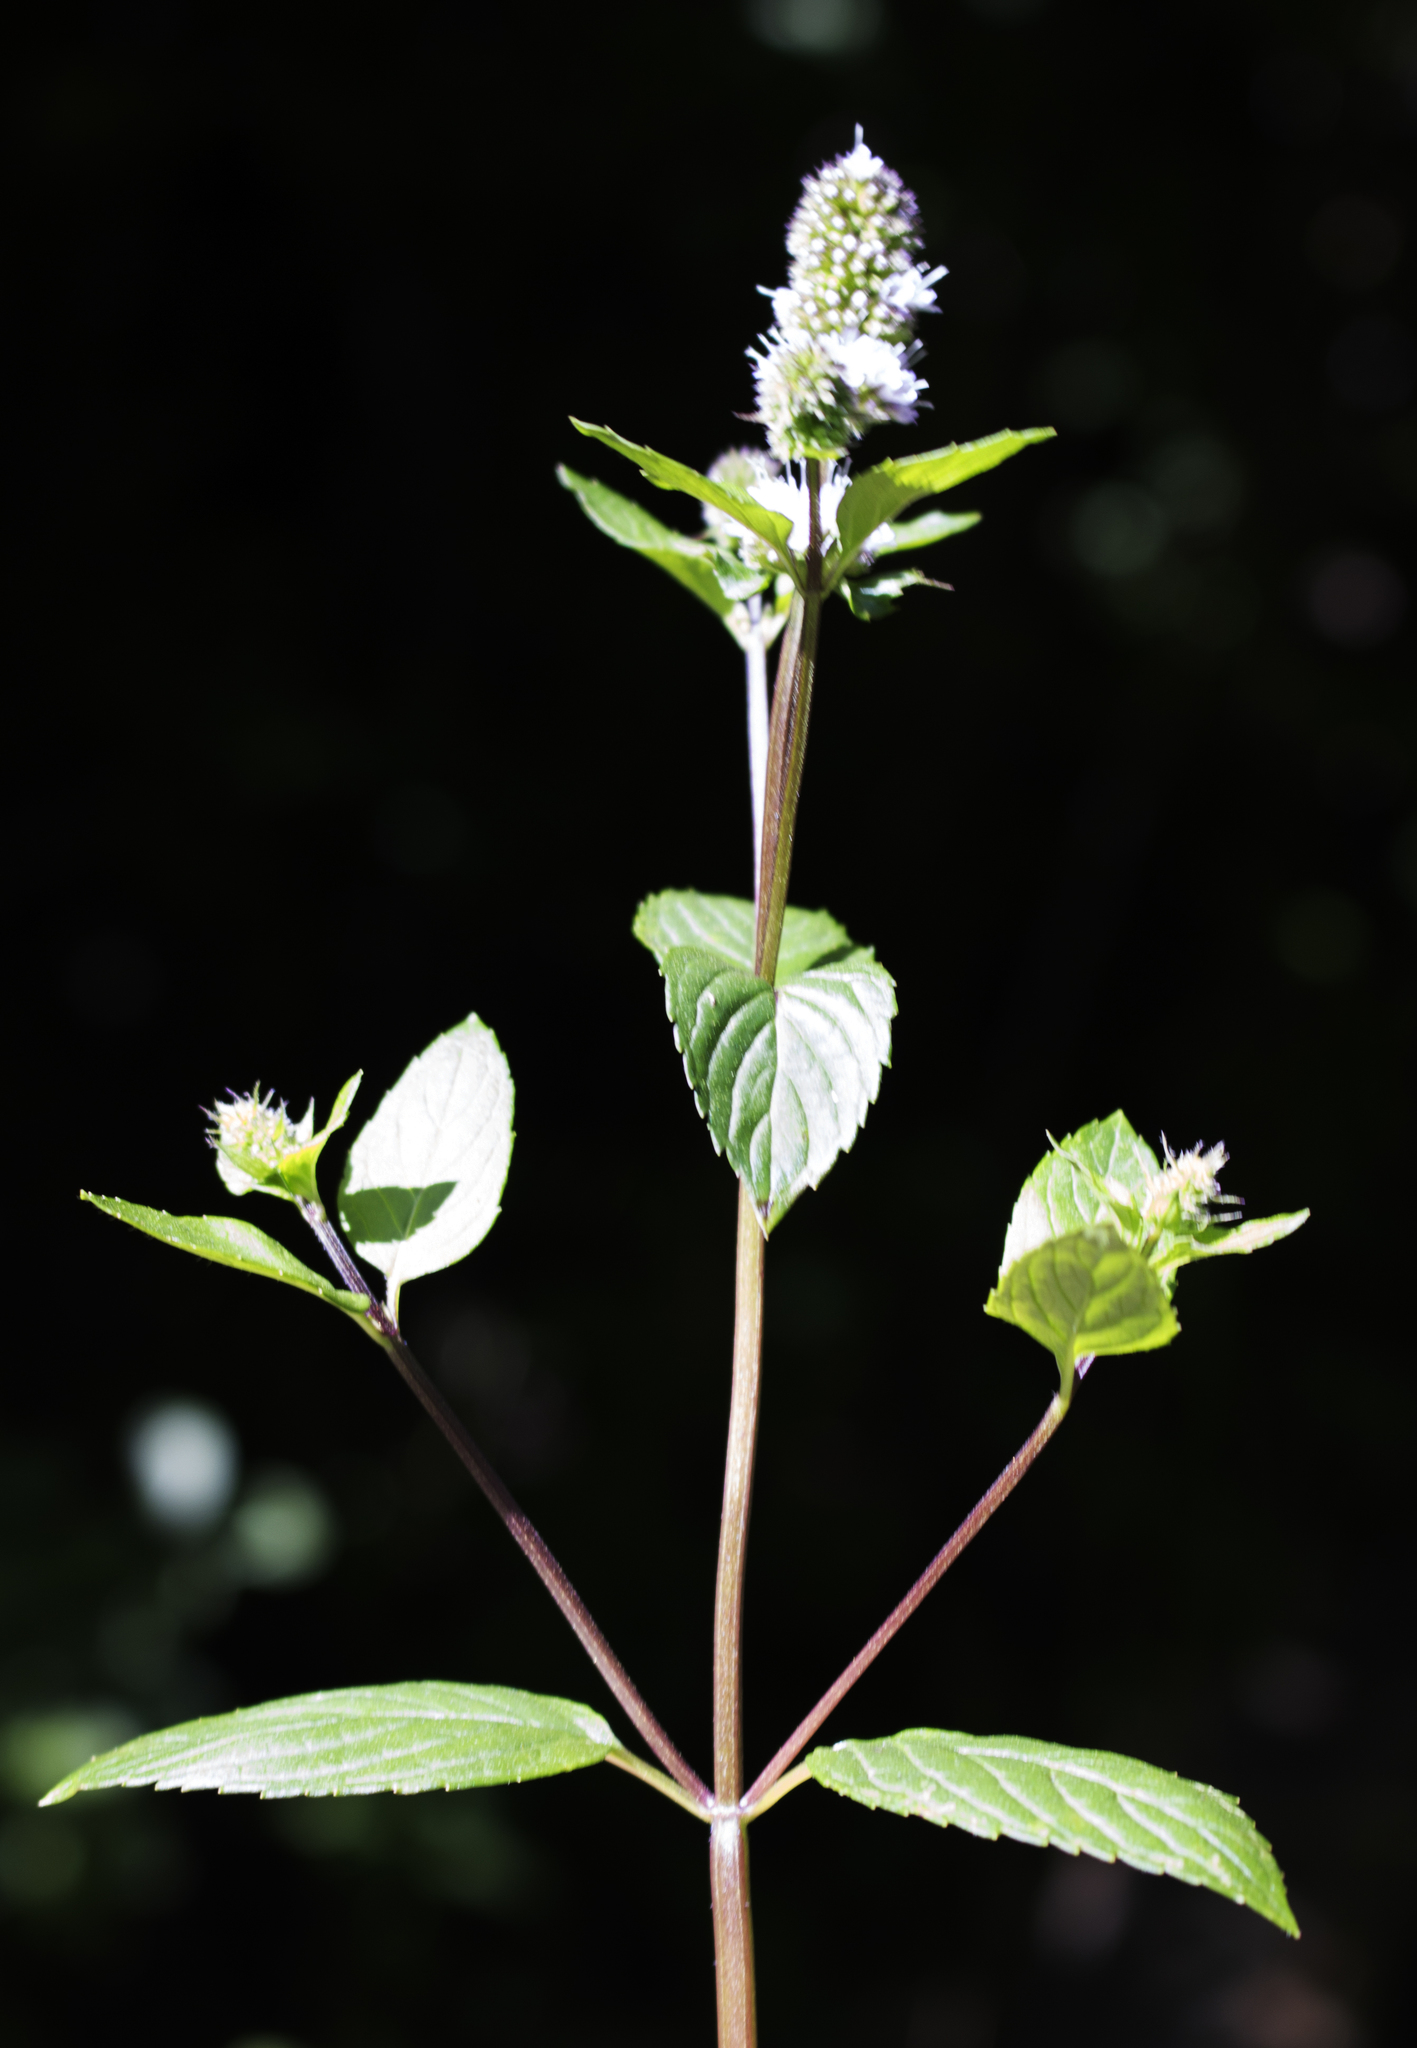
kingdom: Plantae
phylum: Tracheophyta
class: Magnoliopsida
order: Lamiales
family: Lamiaceae
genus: Mentha
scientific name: Mentha piperita
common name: Peppermint
